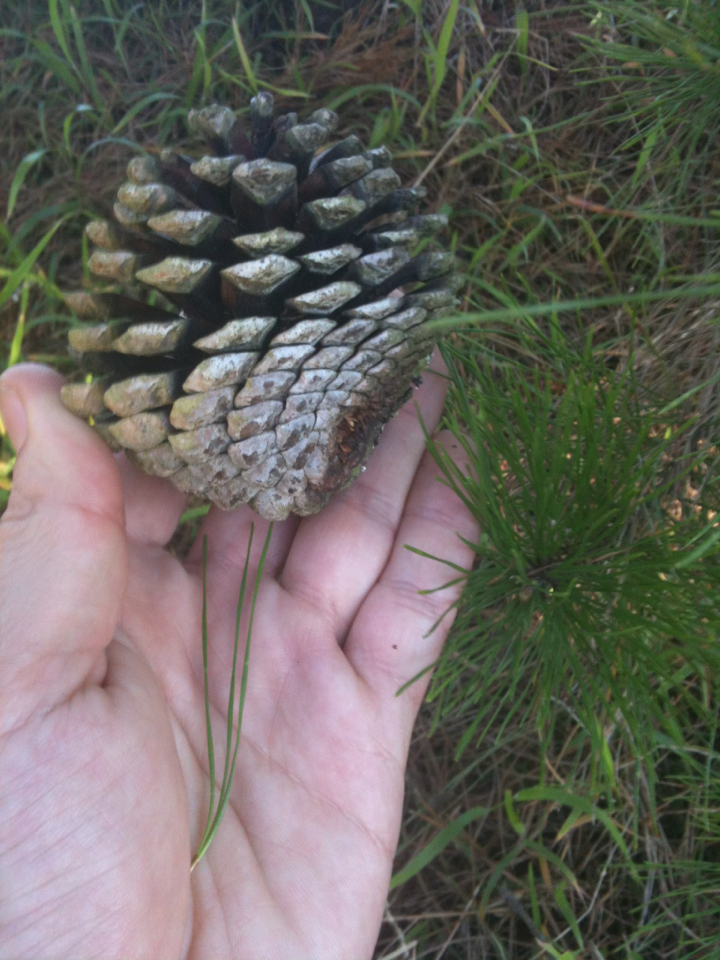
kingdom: Plantae
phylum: Tracheophyta
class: Pinopsida
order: Pinales
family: Pinaceae
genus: Pinus
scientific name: Pinus radiata
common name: Monterey pine
